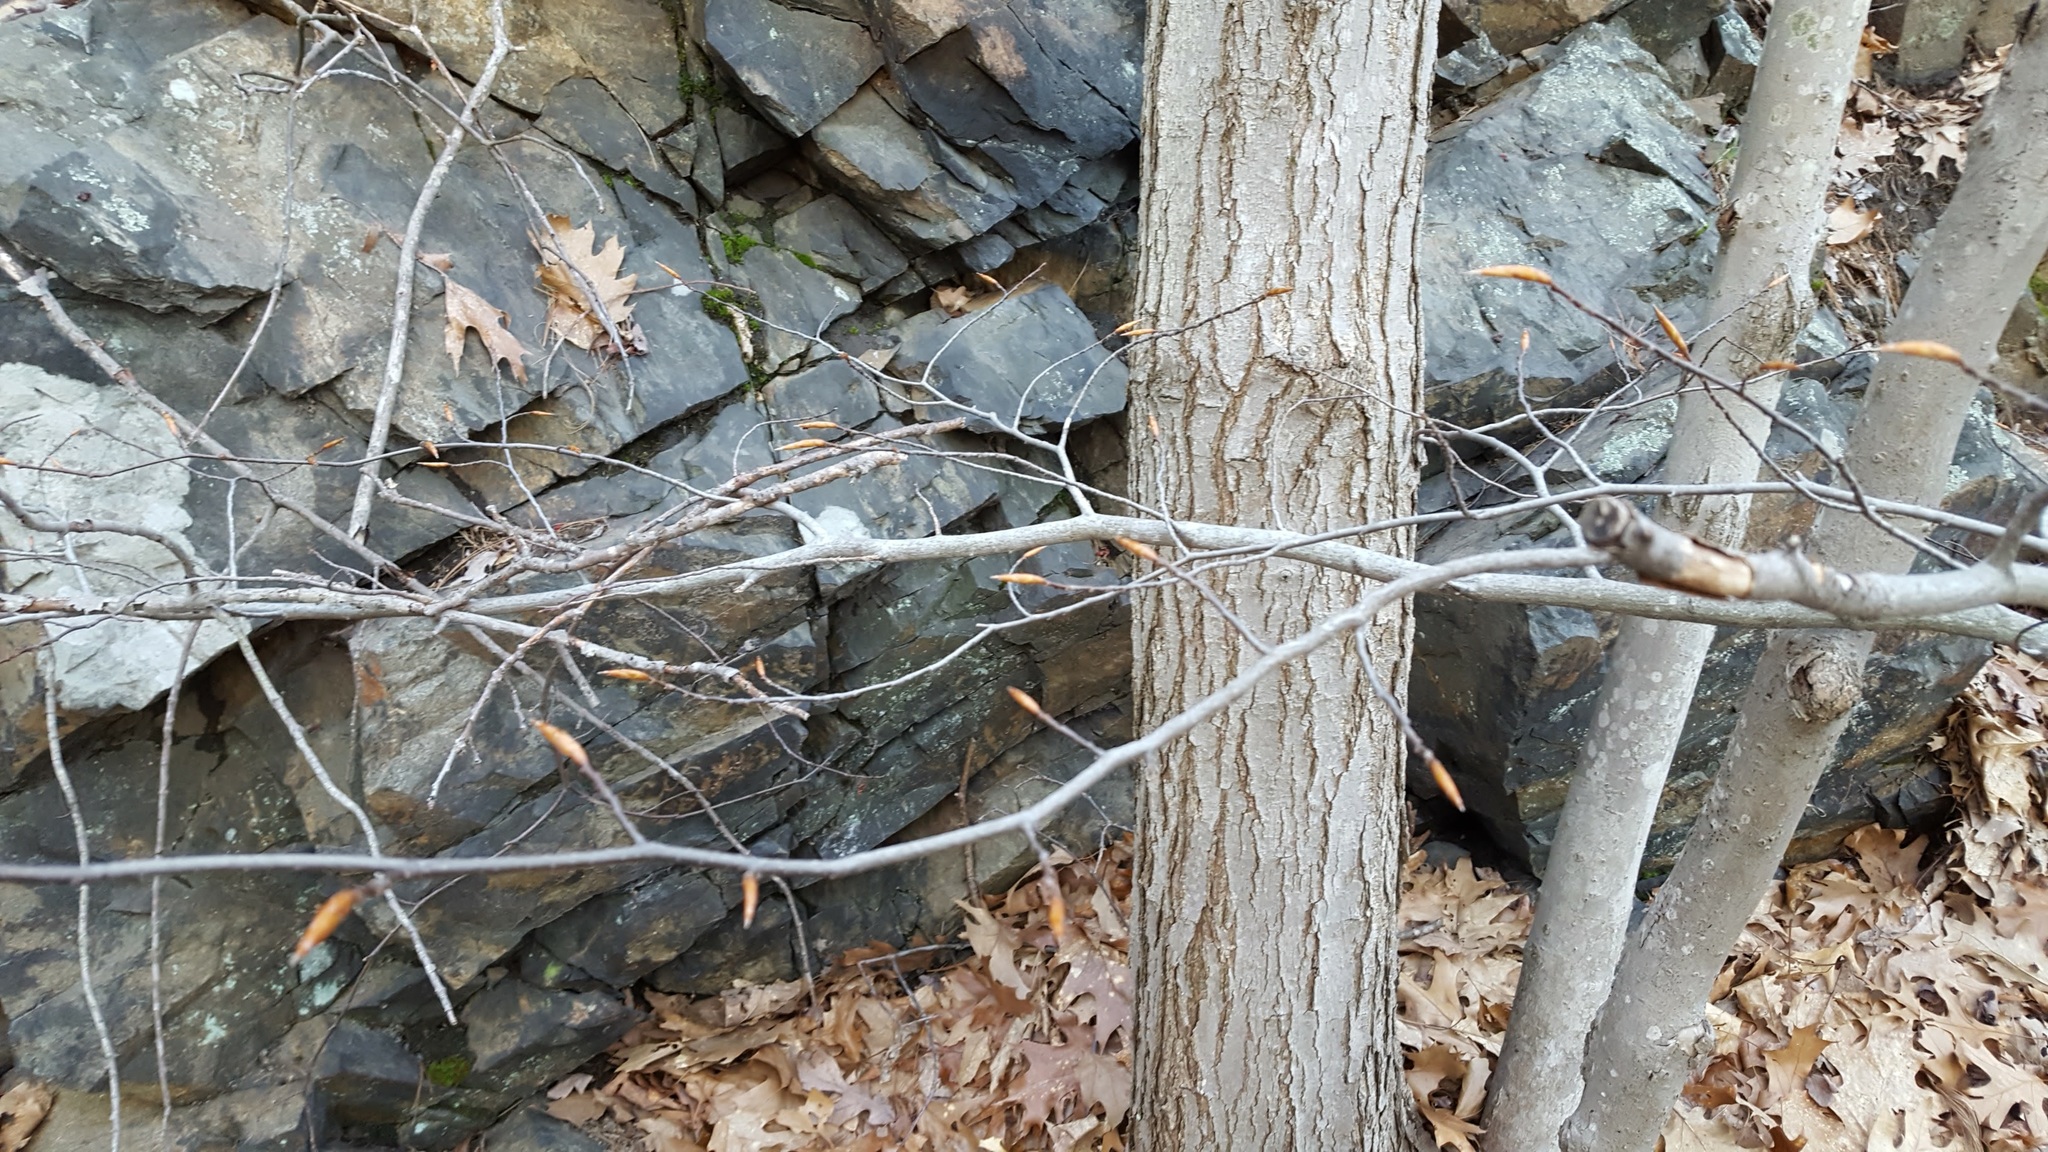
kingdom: Plantae
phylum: Tracheophyta
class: Magnoliopsida
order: Fagales
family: Fagaceae
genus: Fagus
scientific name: Fagus grandifolia
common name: American beech
